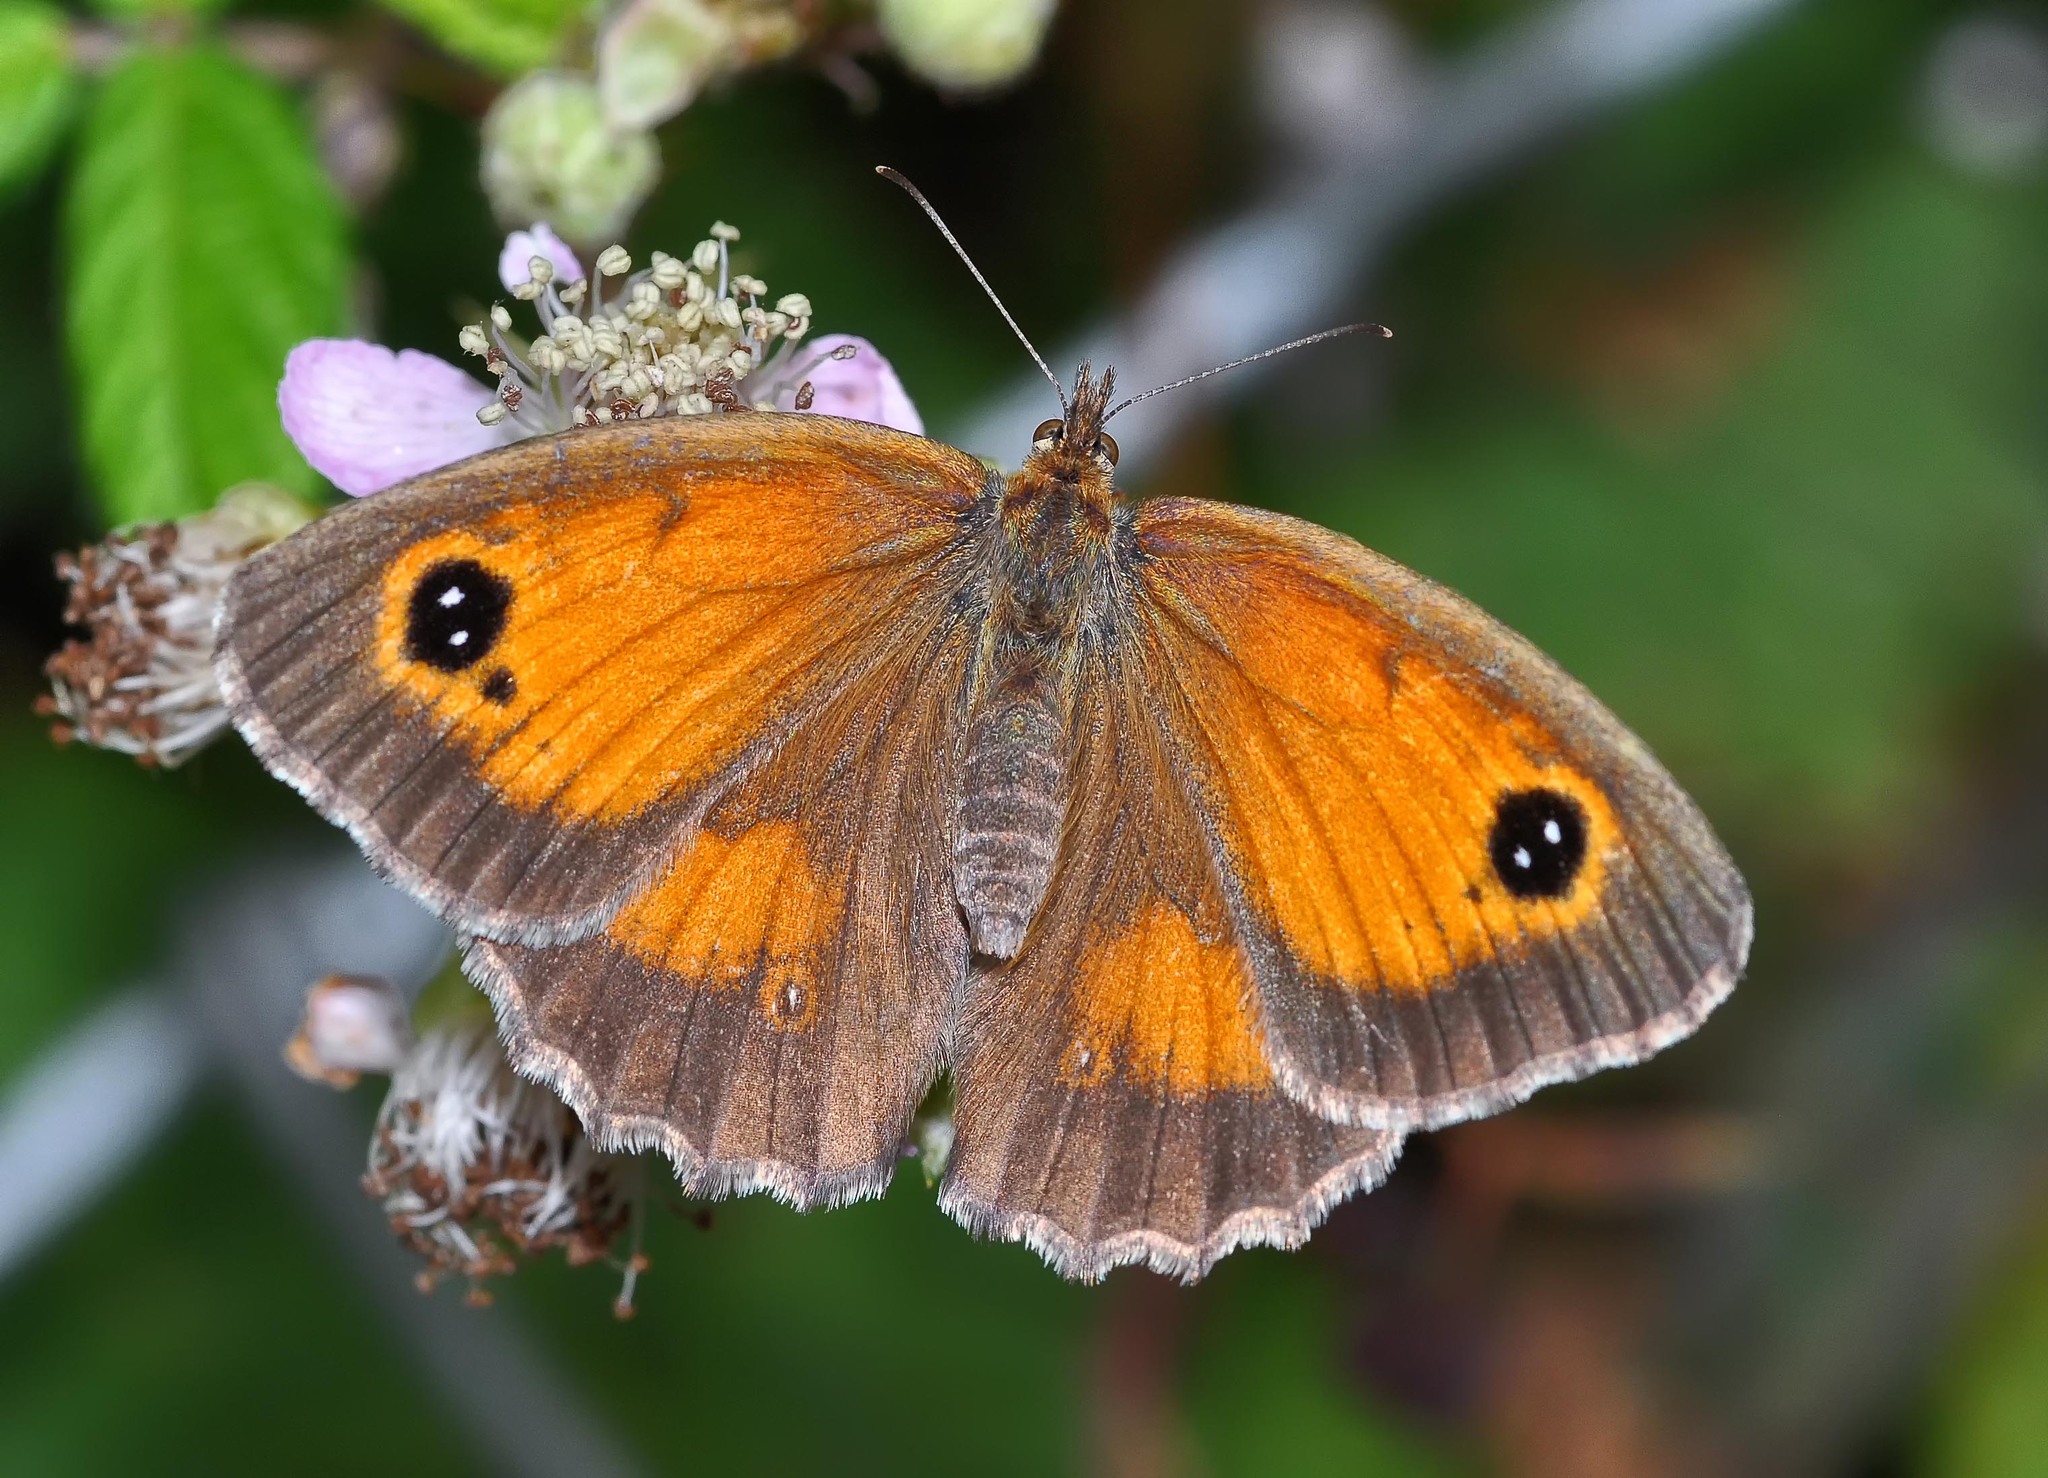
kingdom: Animalia
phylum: Arthropoda
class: Insecta
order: Lepidoptera
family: Nymphalidae
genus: Pyronia
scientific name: Pyronia tithonus
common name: Gatekeeper
